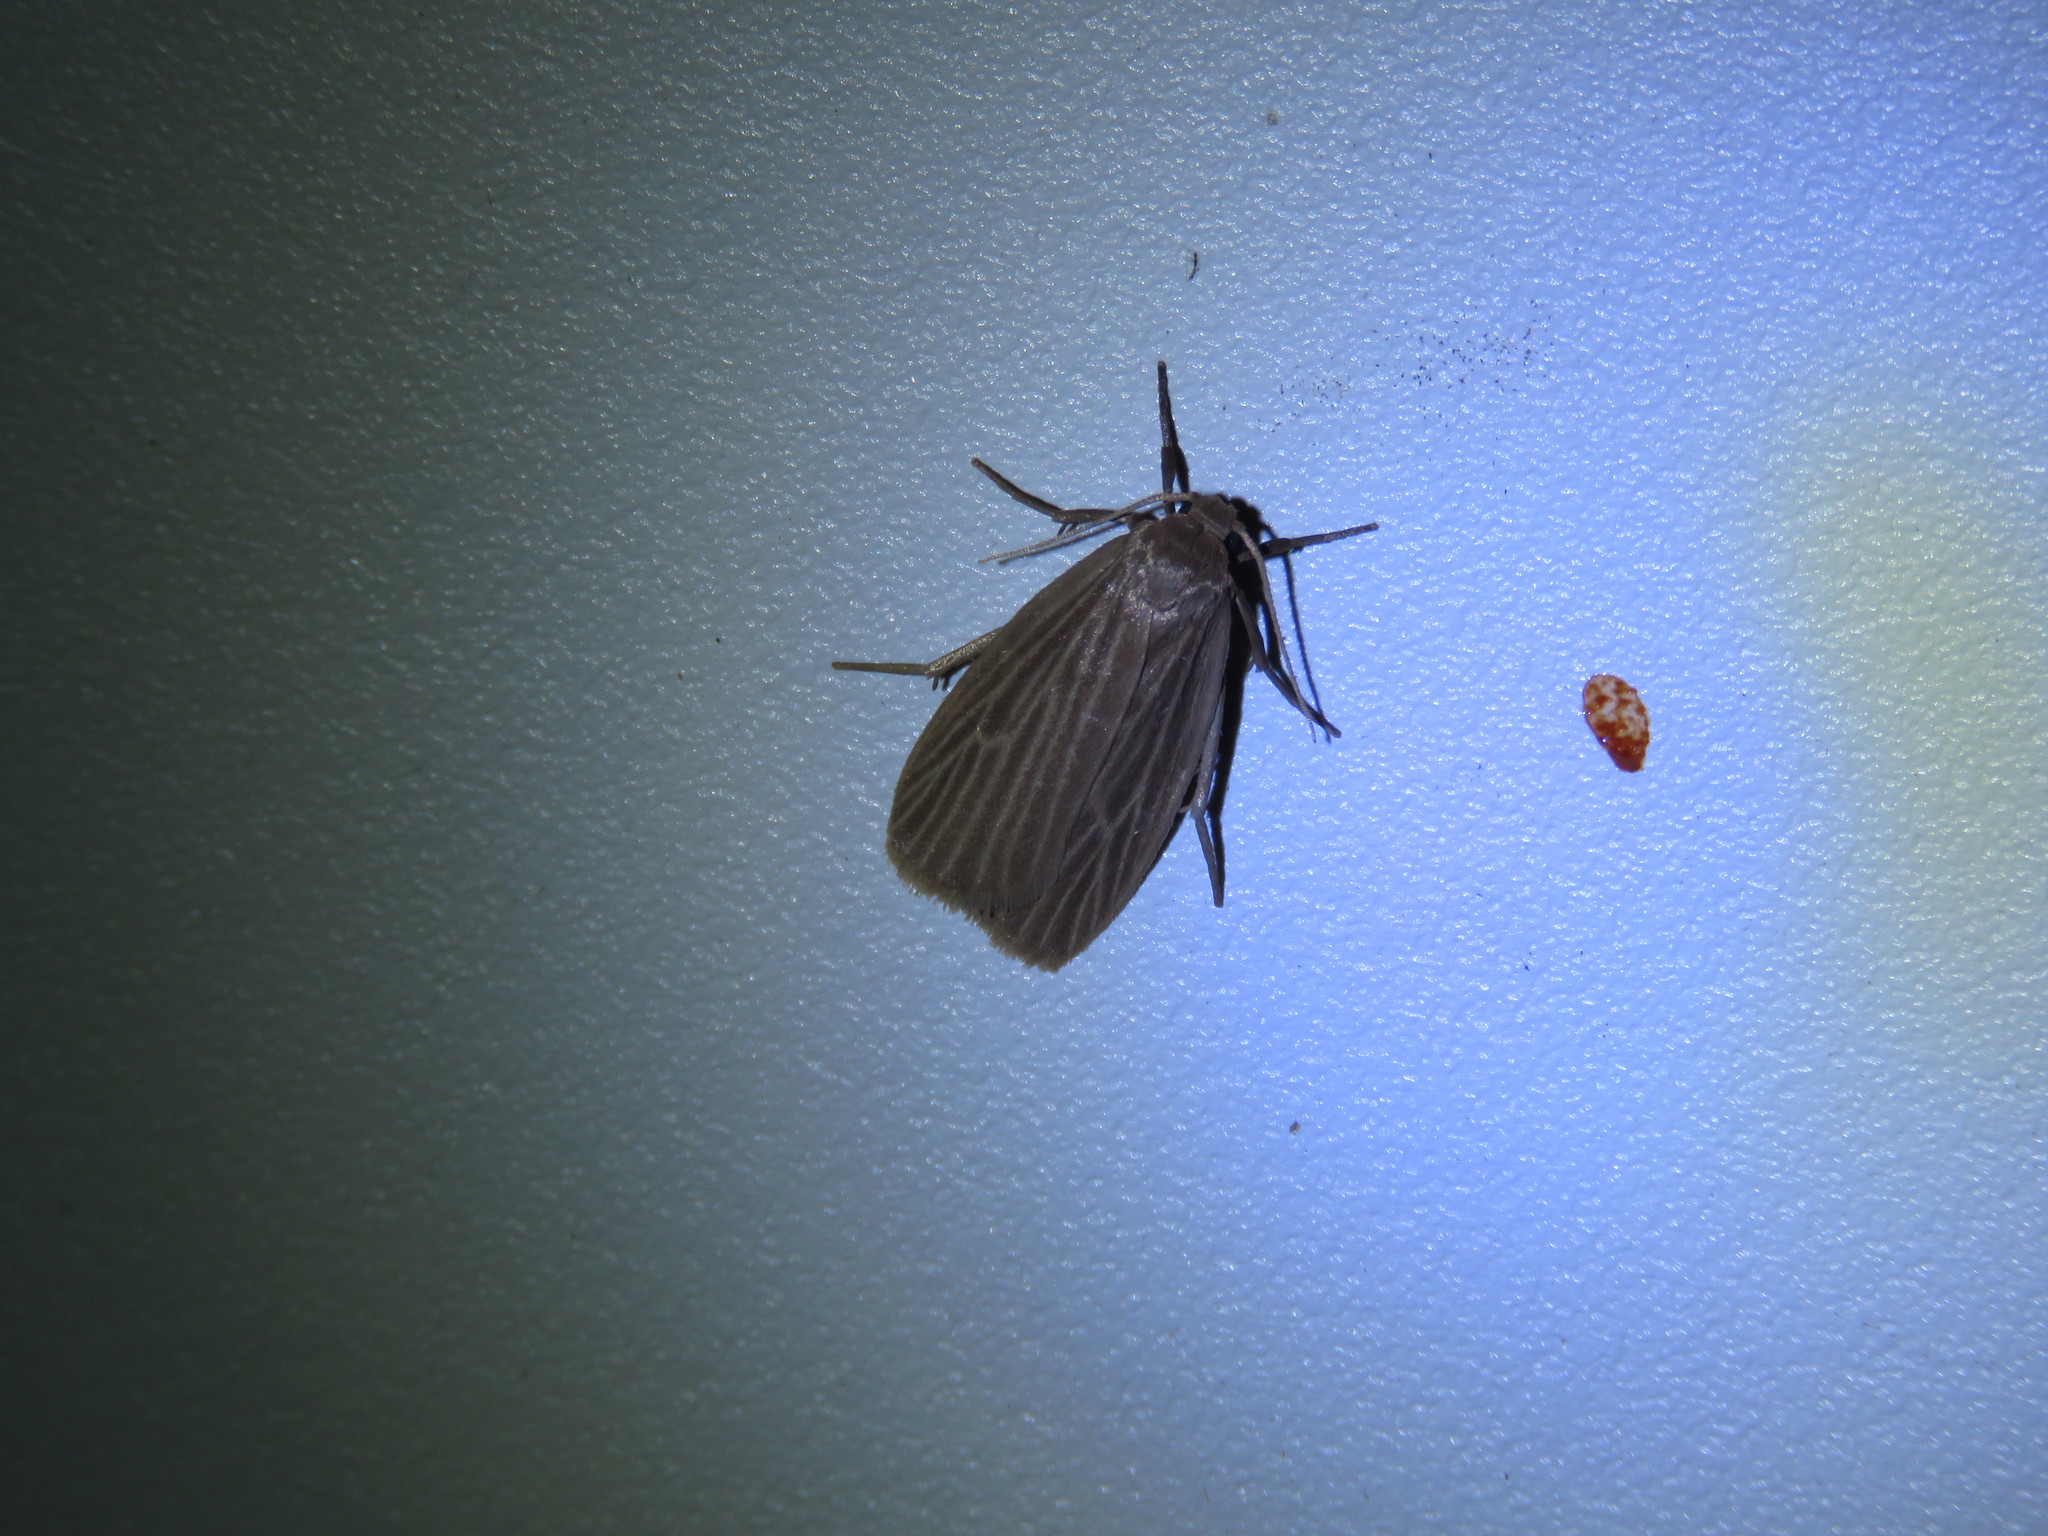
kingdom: Animalia
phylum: Arthropoda
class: Insecta
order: Lepidoptera
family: Erebidae
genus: Crambidia
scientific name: Crambidia pallida
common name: Pale lichen moth
